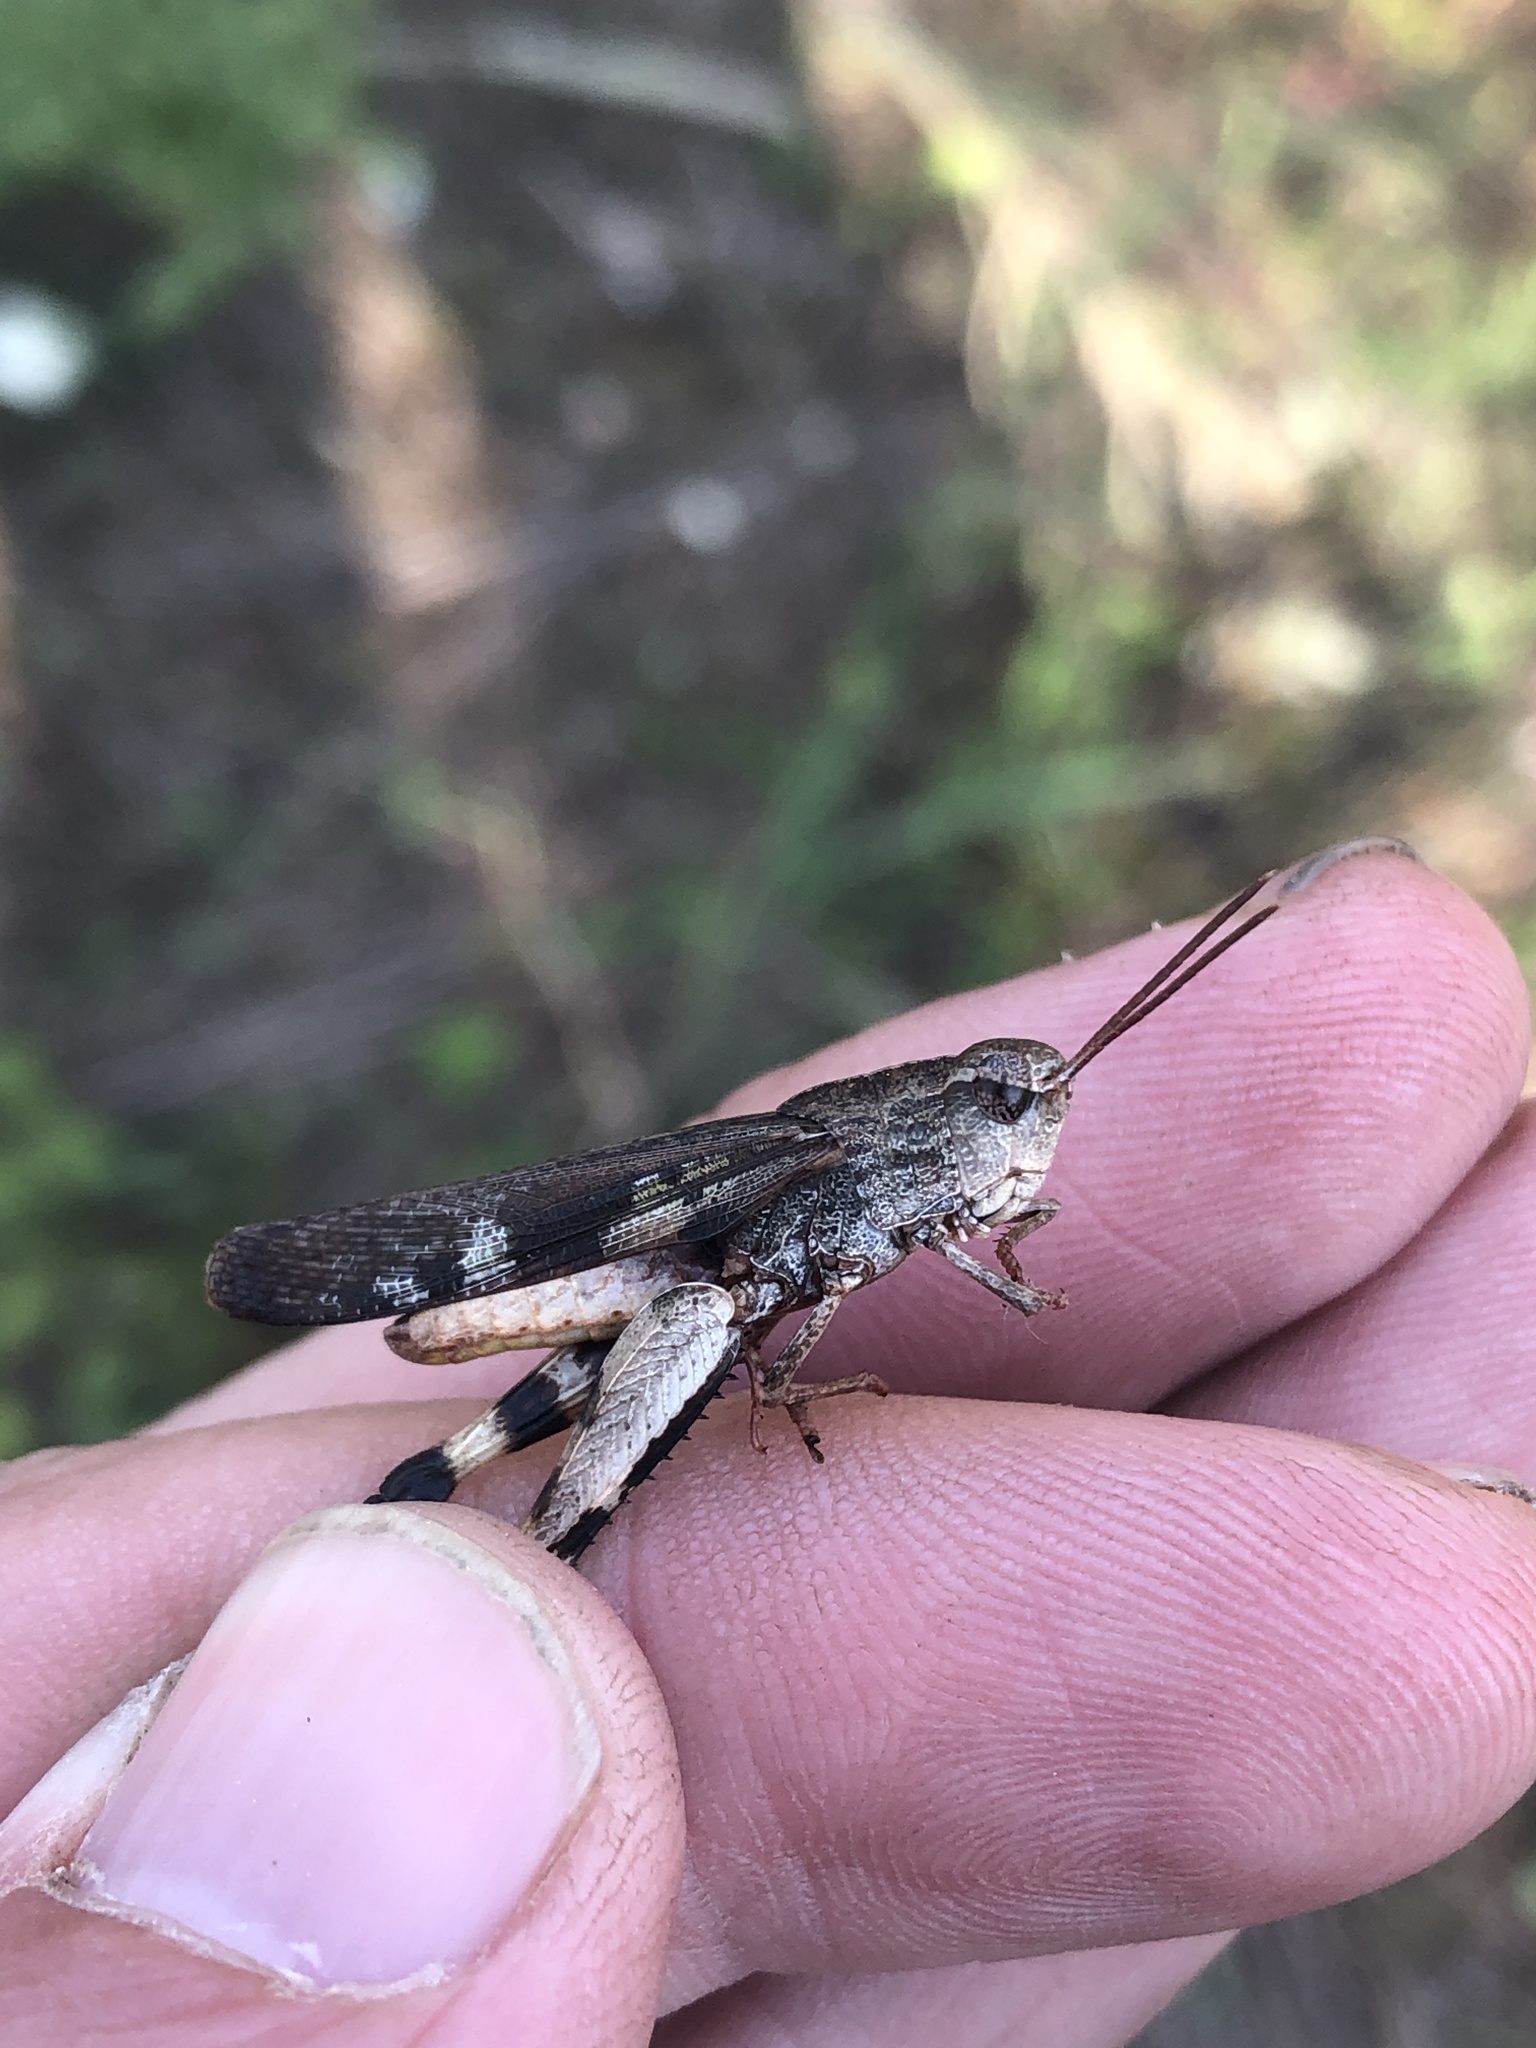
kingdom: Animalia
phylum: Arthropoda
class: Insecta
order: Orthoptera
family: Acrididae
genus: Chortophaga
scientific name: Chortophaga viridifasciata
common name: Green-striped grasshopper
